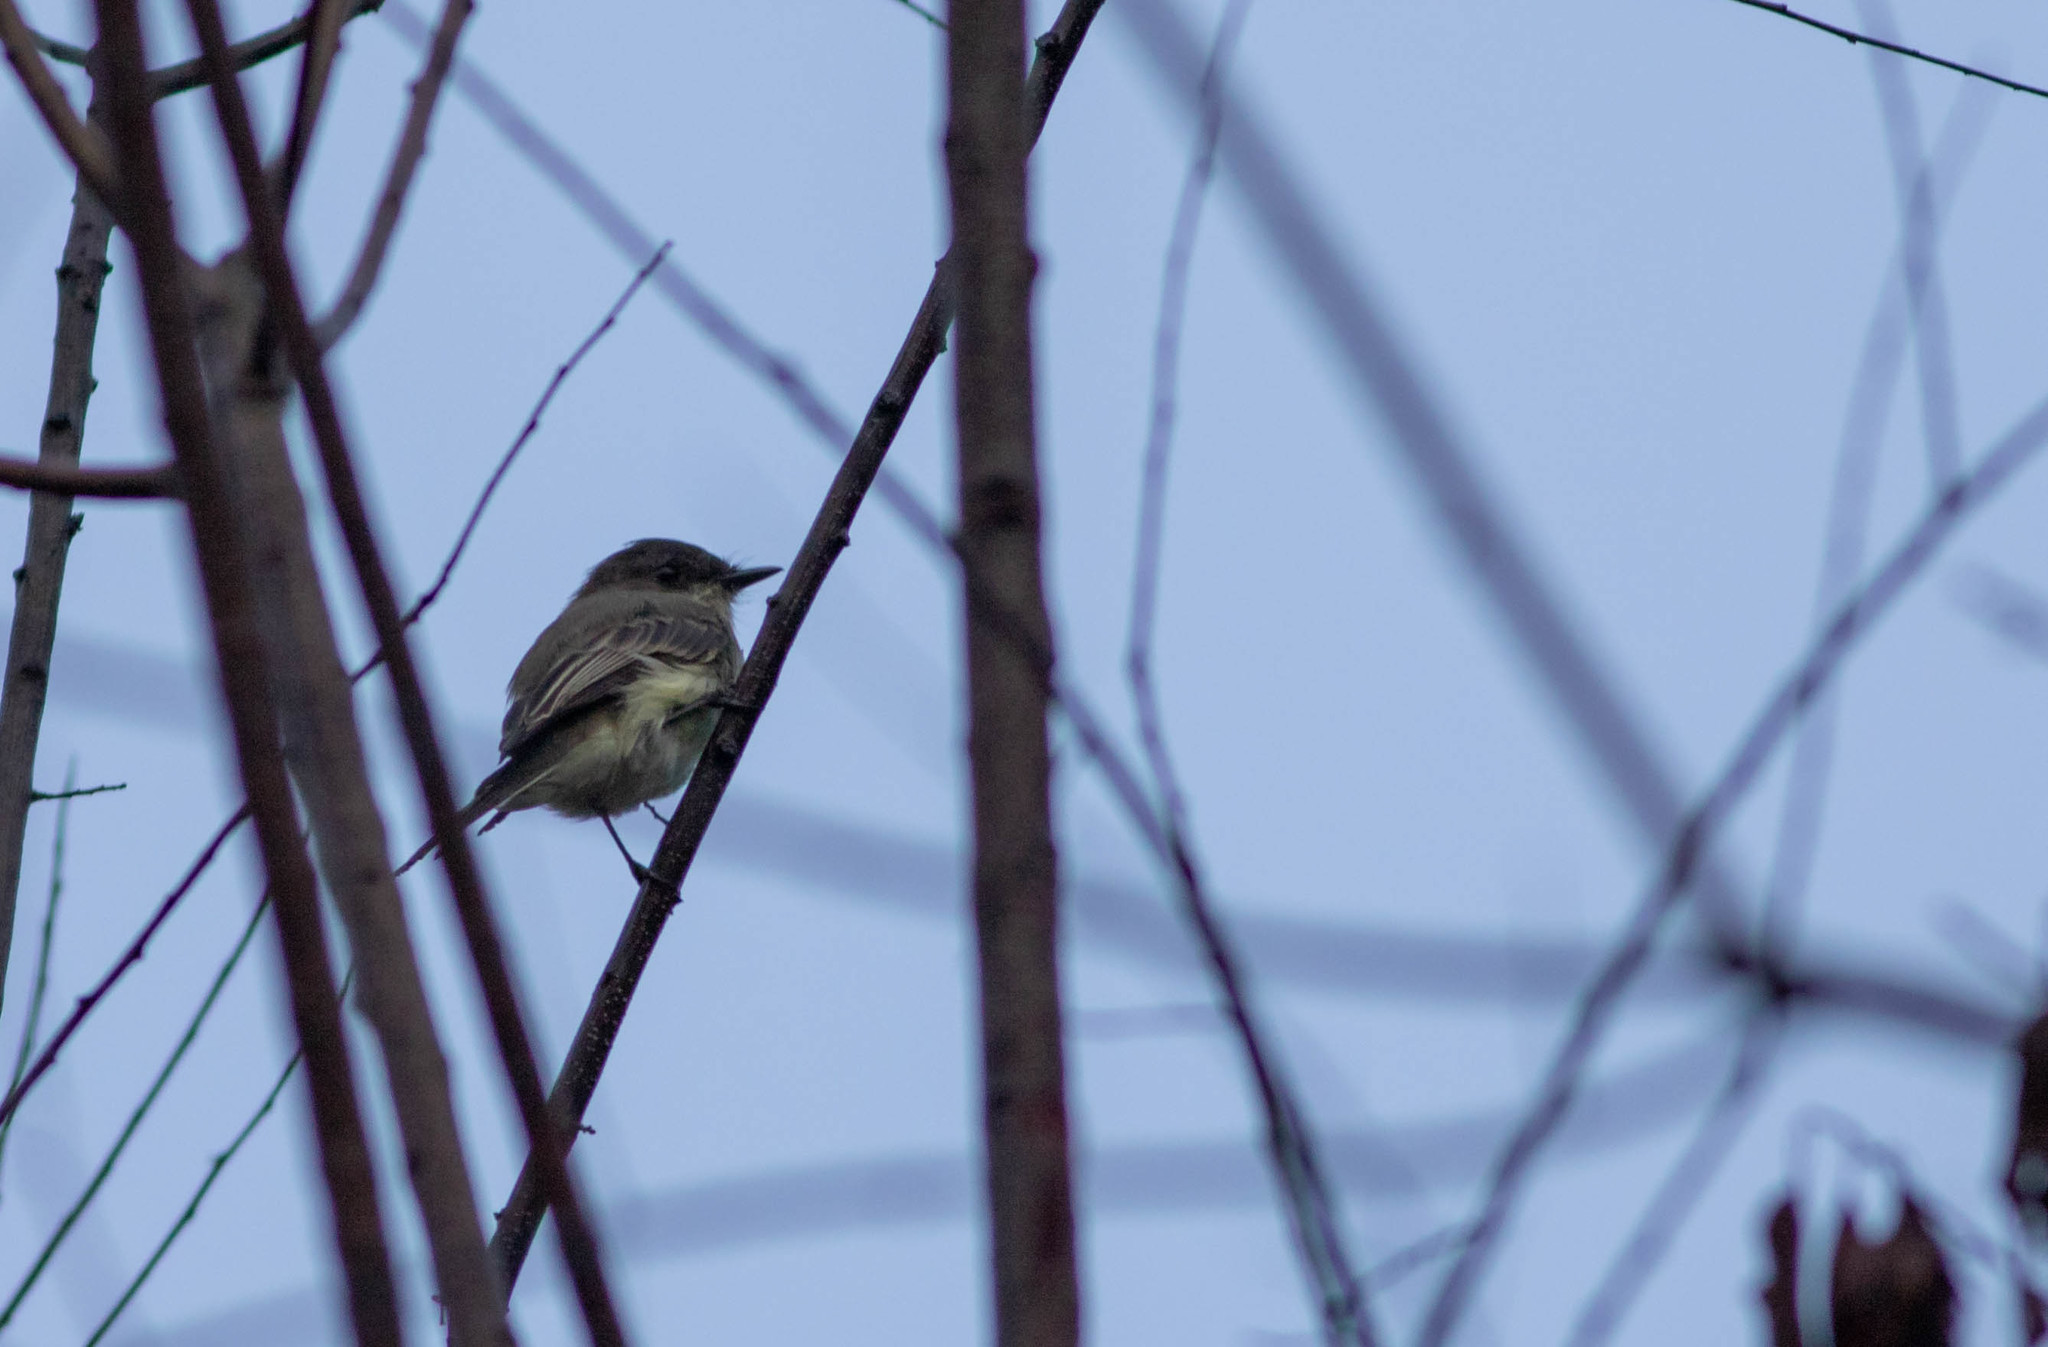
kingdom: Animalia
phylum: Chordata
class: Aves
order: Passeriformes
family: Tyrannidae
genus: Sayornis
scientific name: Sayornis phoebe
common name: Eastern phoebe
